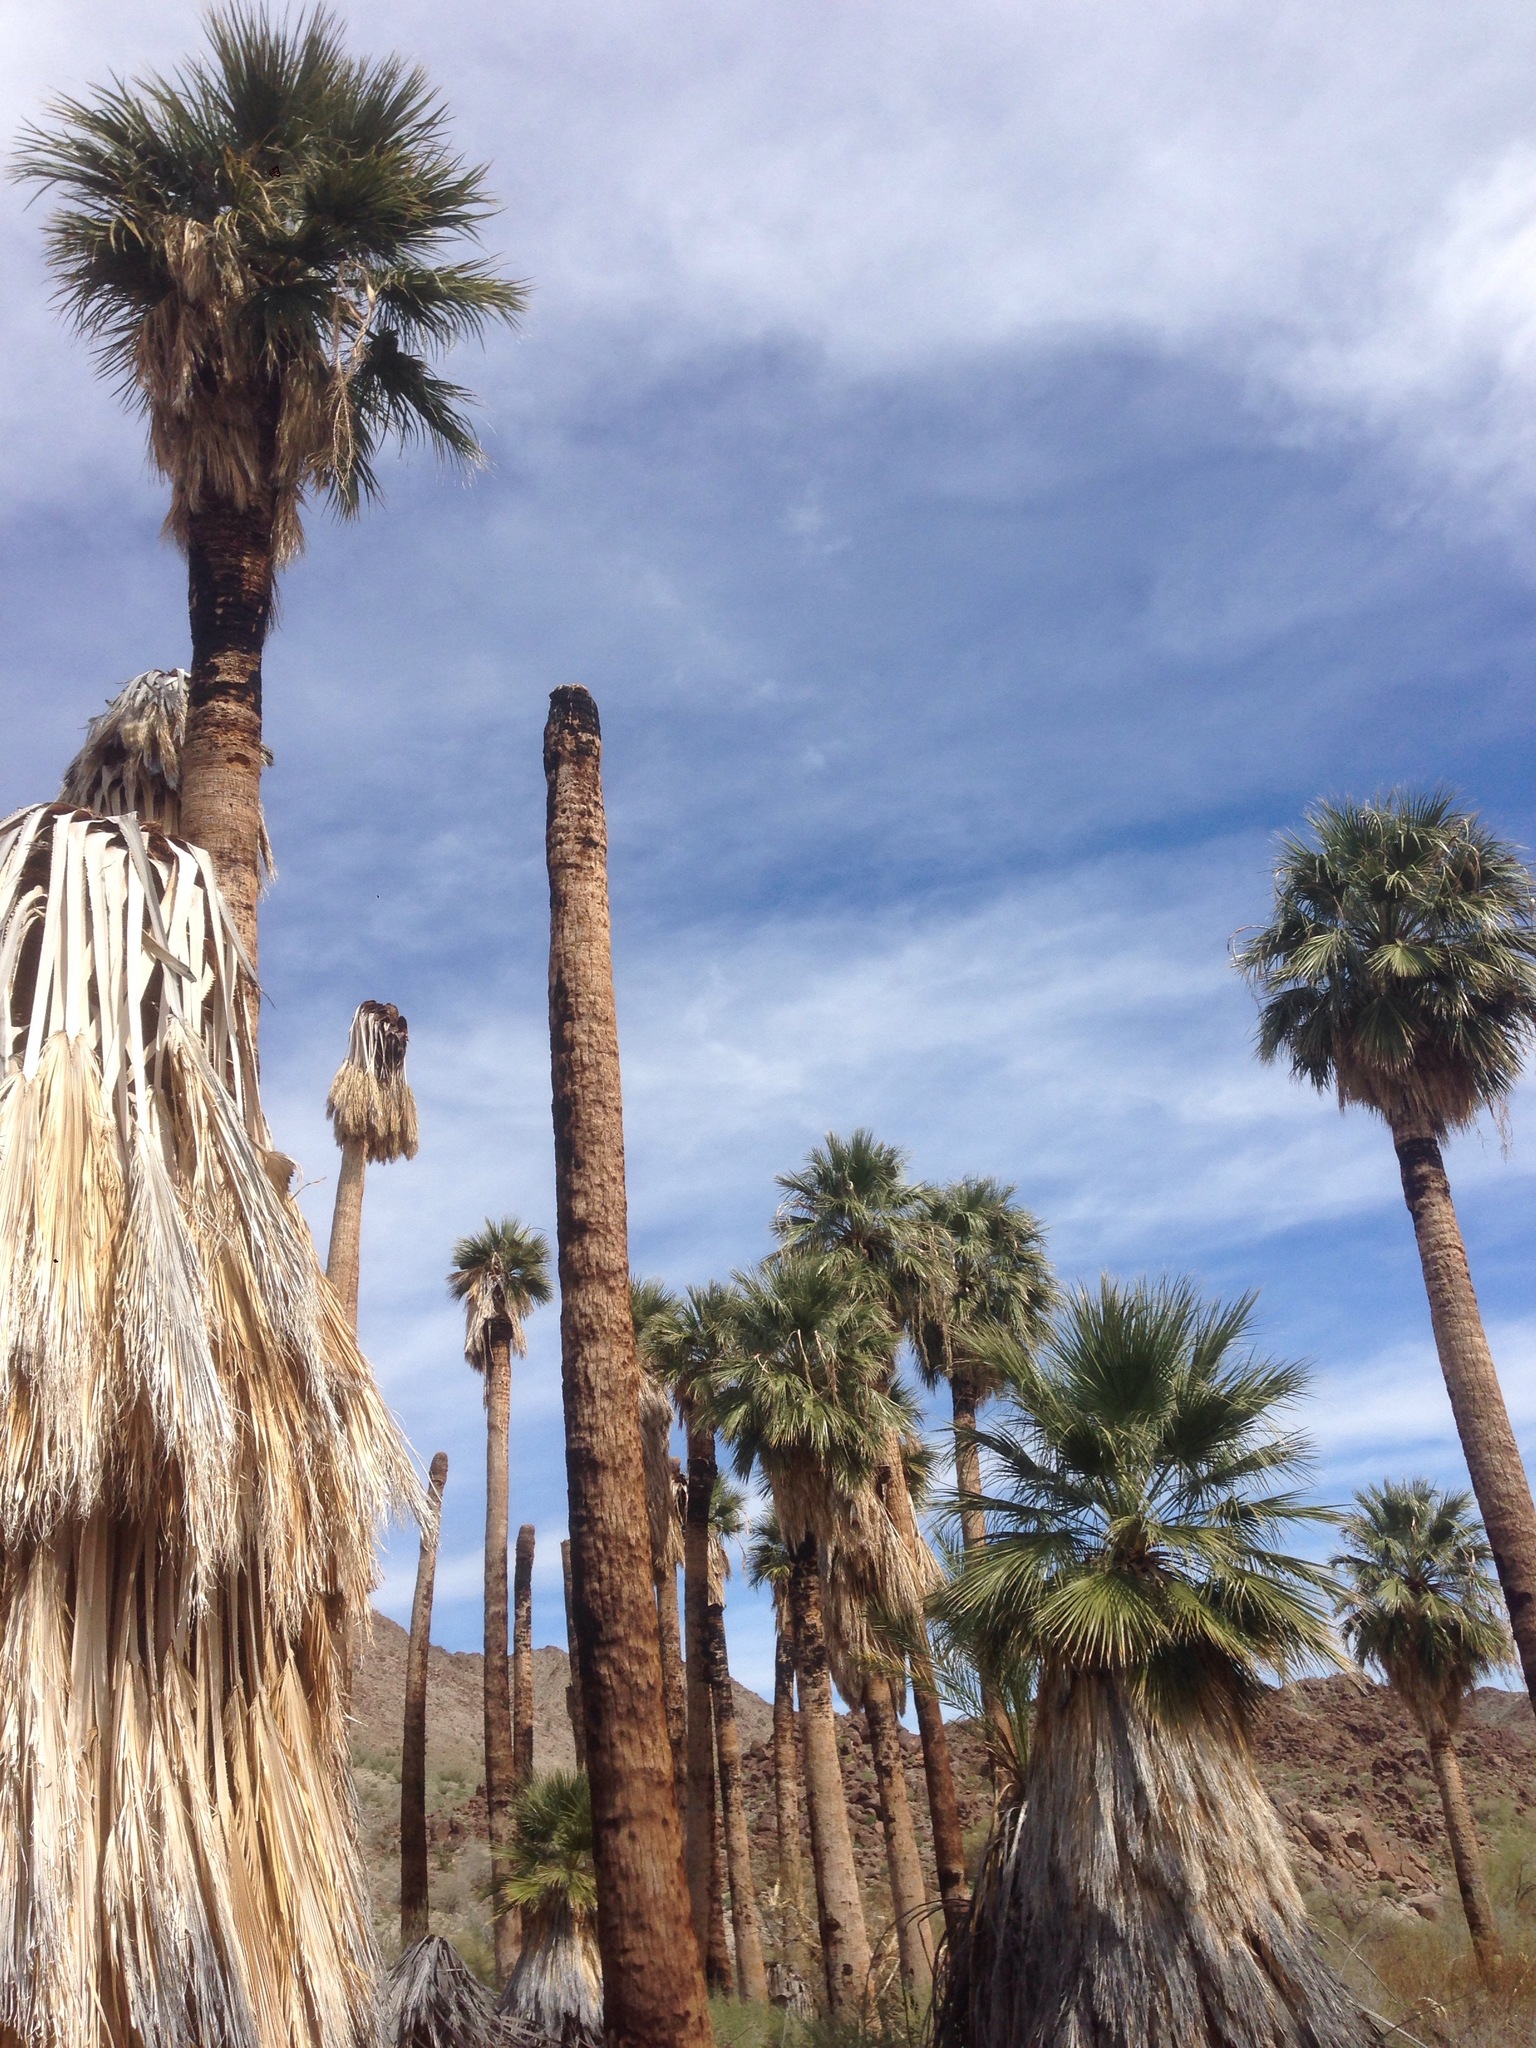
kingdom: Plantae
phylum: Tracheophyta
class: Liliopsida
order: Arecales
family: Arecaceae
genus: Washingtonia
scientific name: Washingtonia filifera
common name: California fan palm
